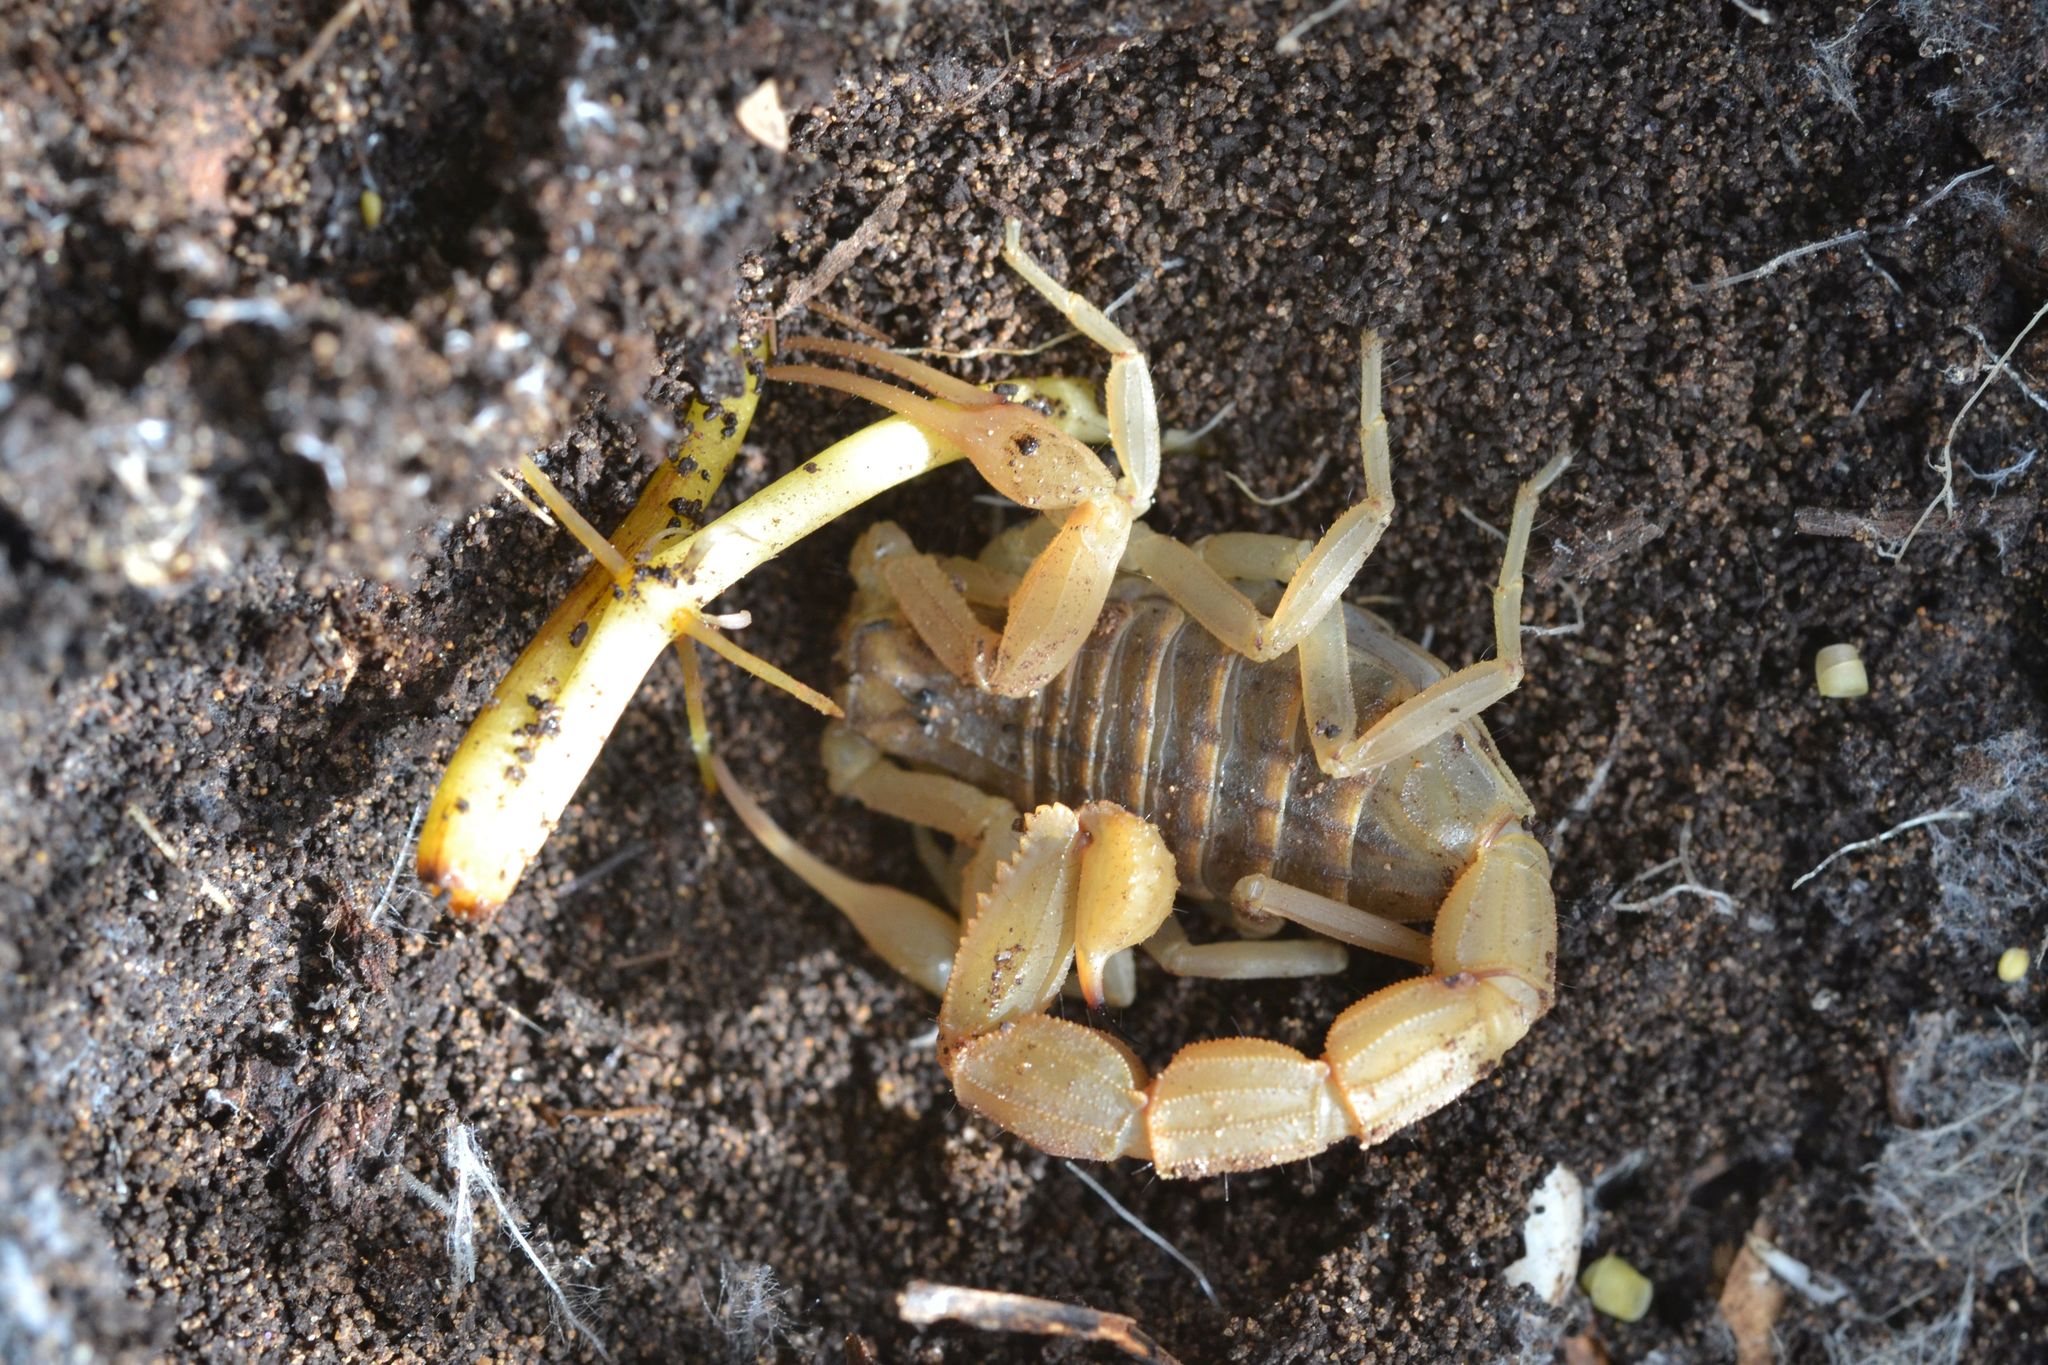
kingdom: Animalia
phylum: Arthropoda
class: Arachnida
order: Scorpiones
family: Buthidae
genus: Aegaeobuthus
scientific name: Aegaeobuthus gibbosus
